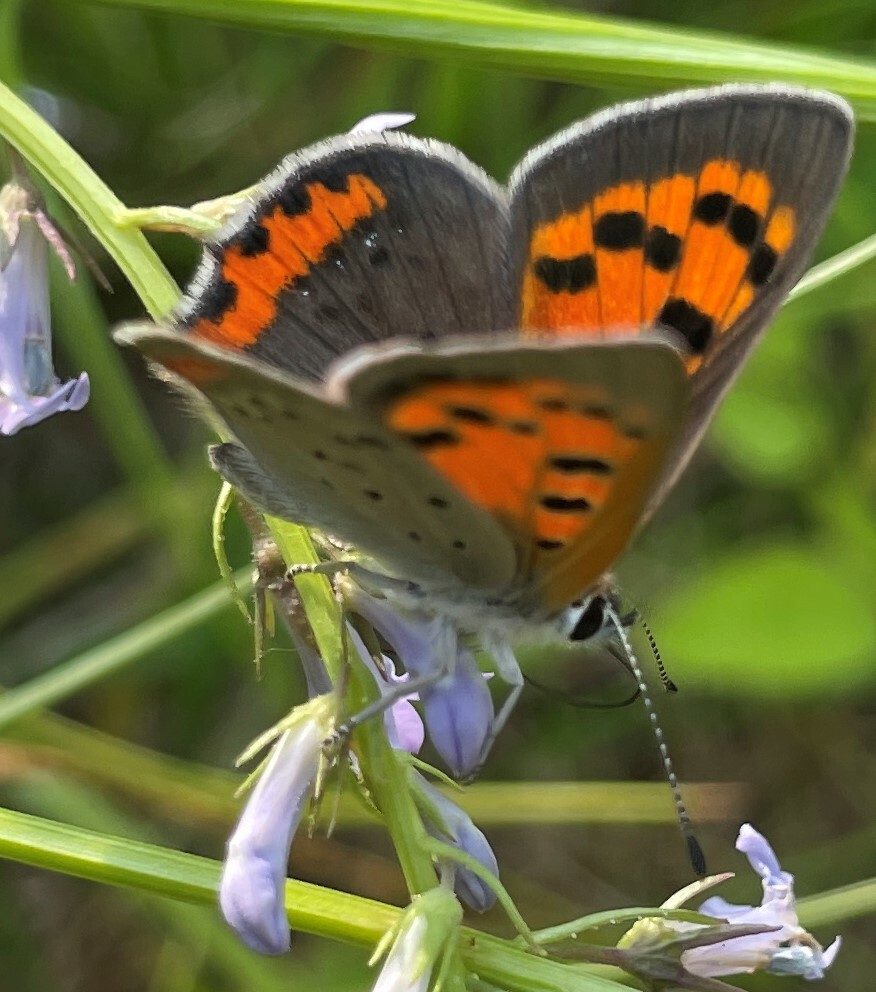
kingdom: Animalia
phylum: Arthropoda
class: Insecta
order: Lepidoptera
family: Lycaenidae
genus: Lycaena
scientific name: Lycaena hypophlaeas
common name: American copper
